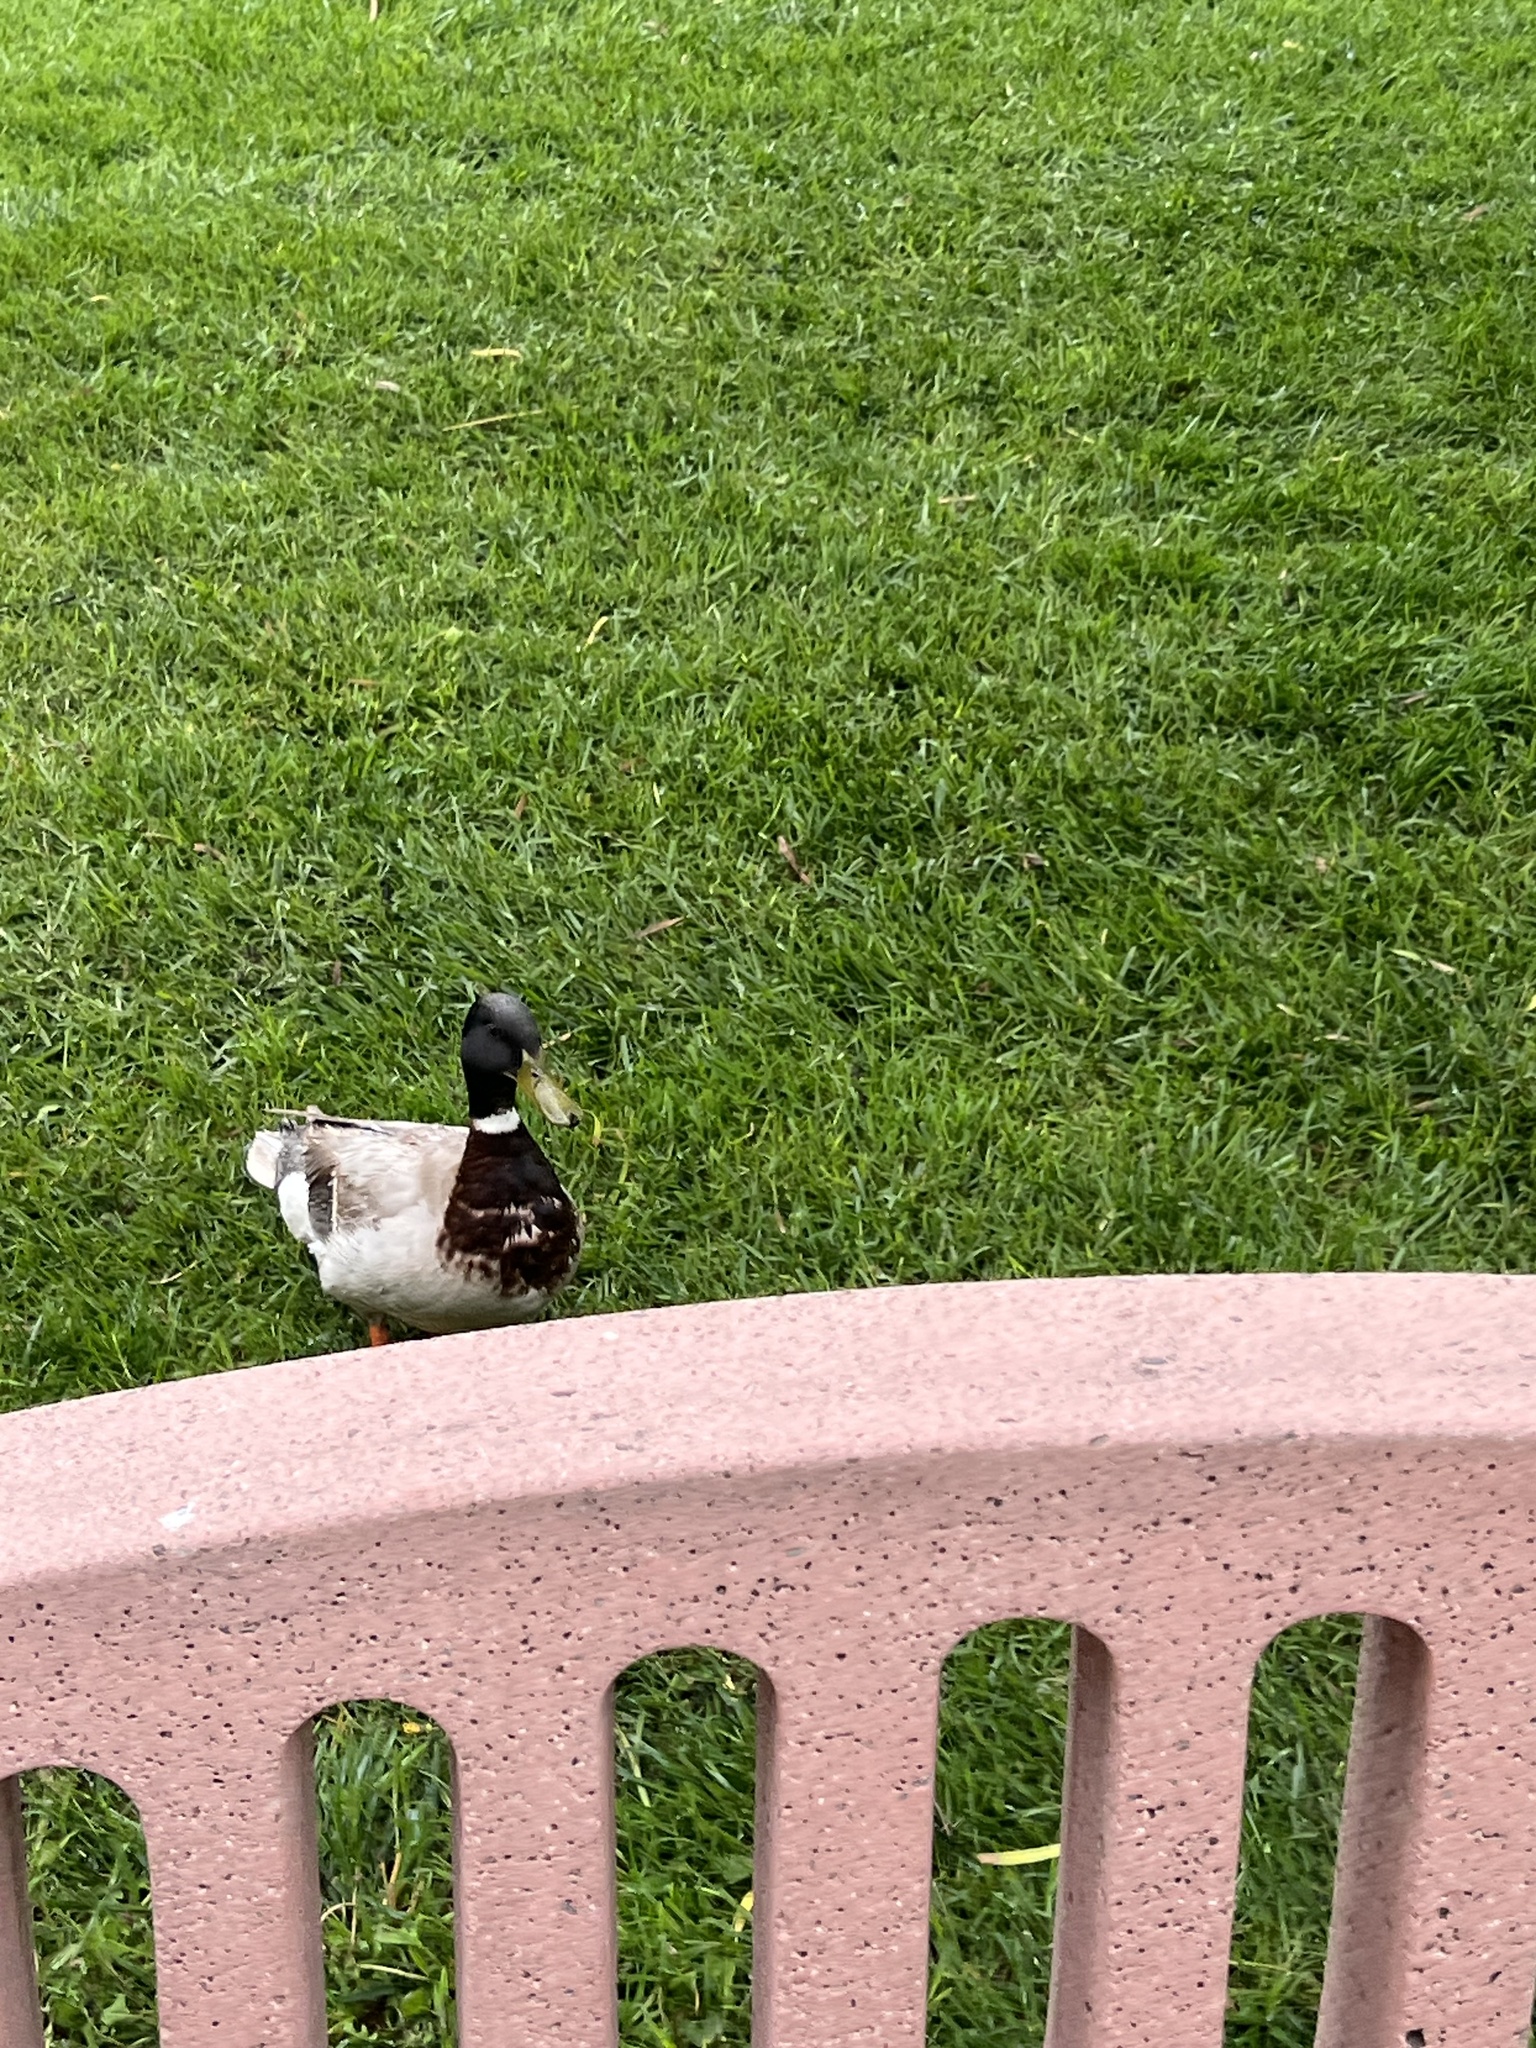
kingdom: Animalia
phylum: Chordata
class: Aves
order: Anseriformes
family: Anatidae
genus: Anas
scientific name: Anas platyrhynchos
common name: Mallard
